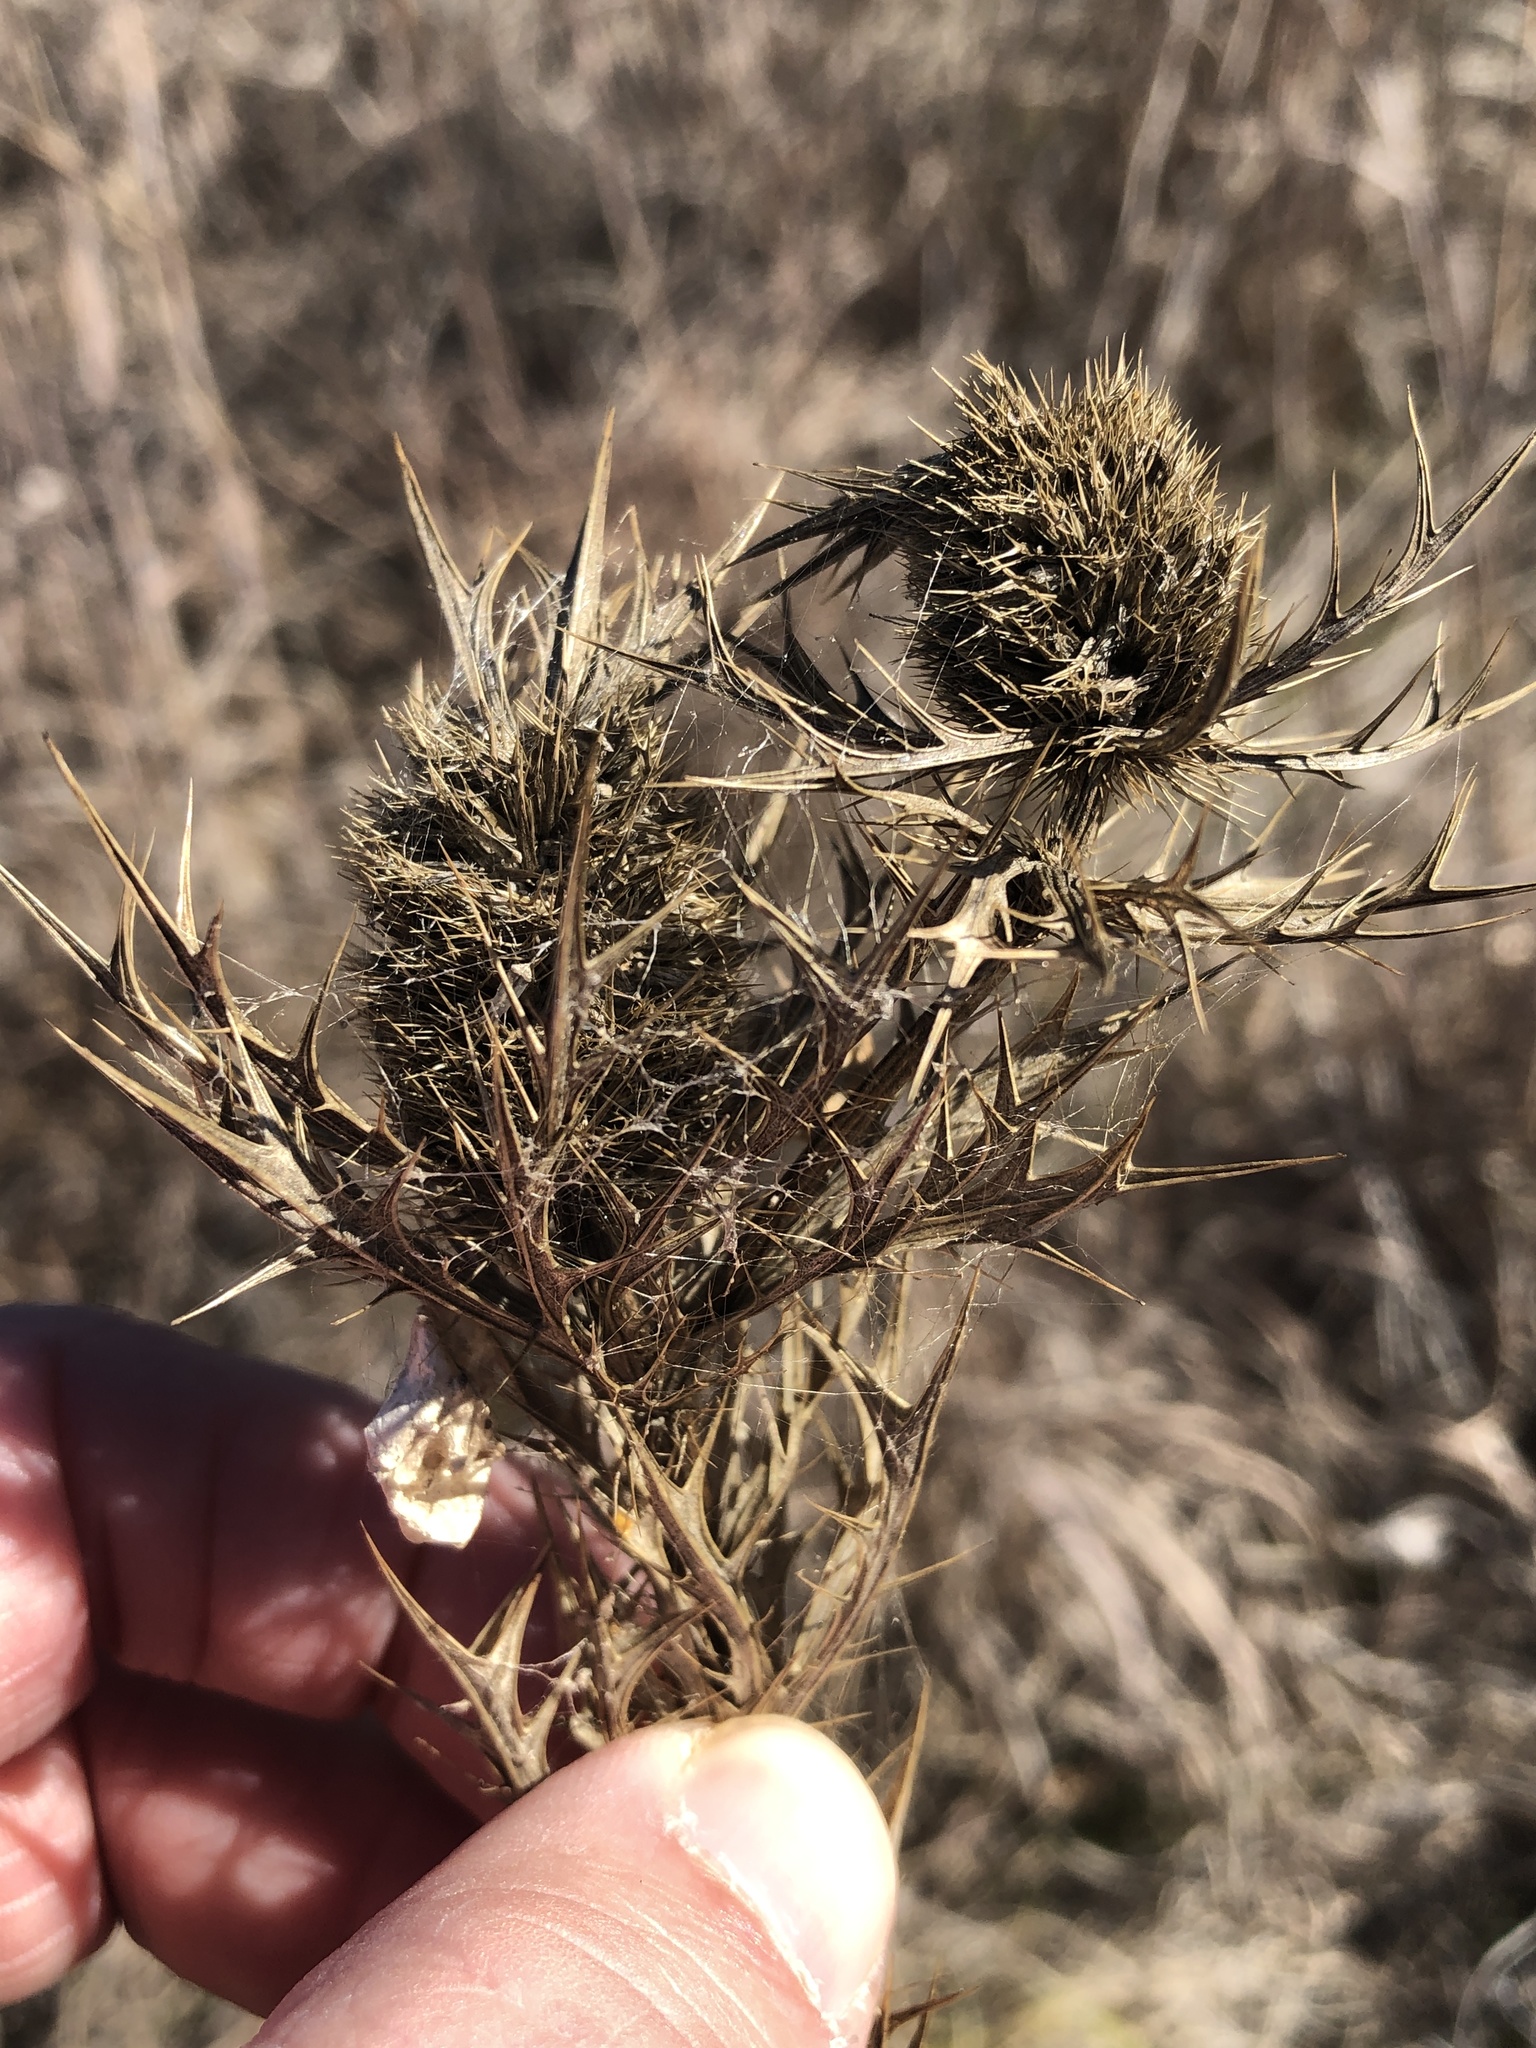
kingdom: Plantae
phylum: Tracheophyta
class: Magnoliopsida
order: Apiales
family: Apiaceae
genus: Eryngium
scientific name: Eryngium leavenworthii
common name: Leavenworth's eryngo
